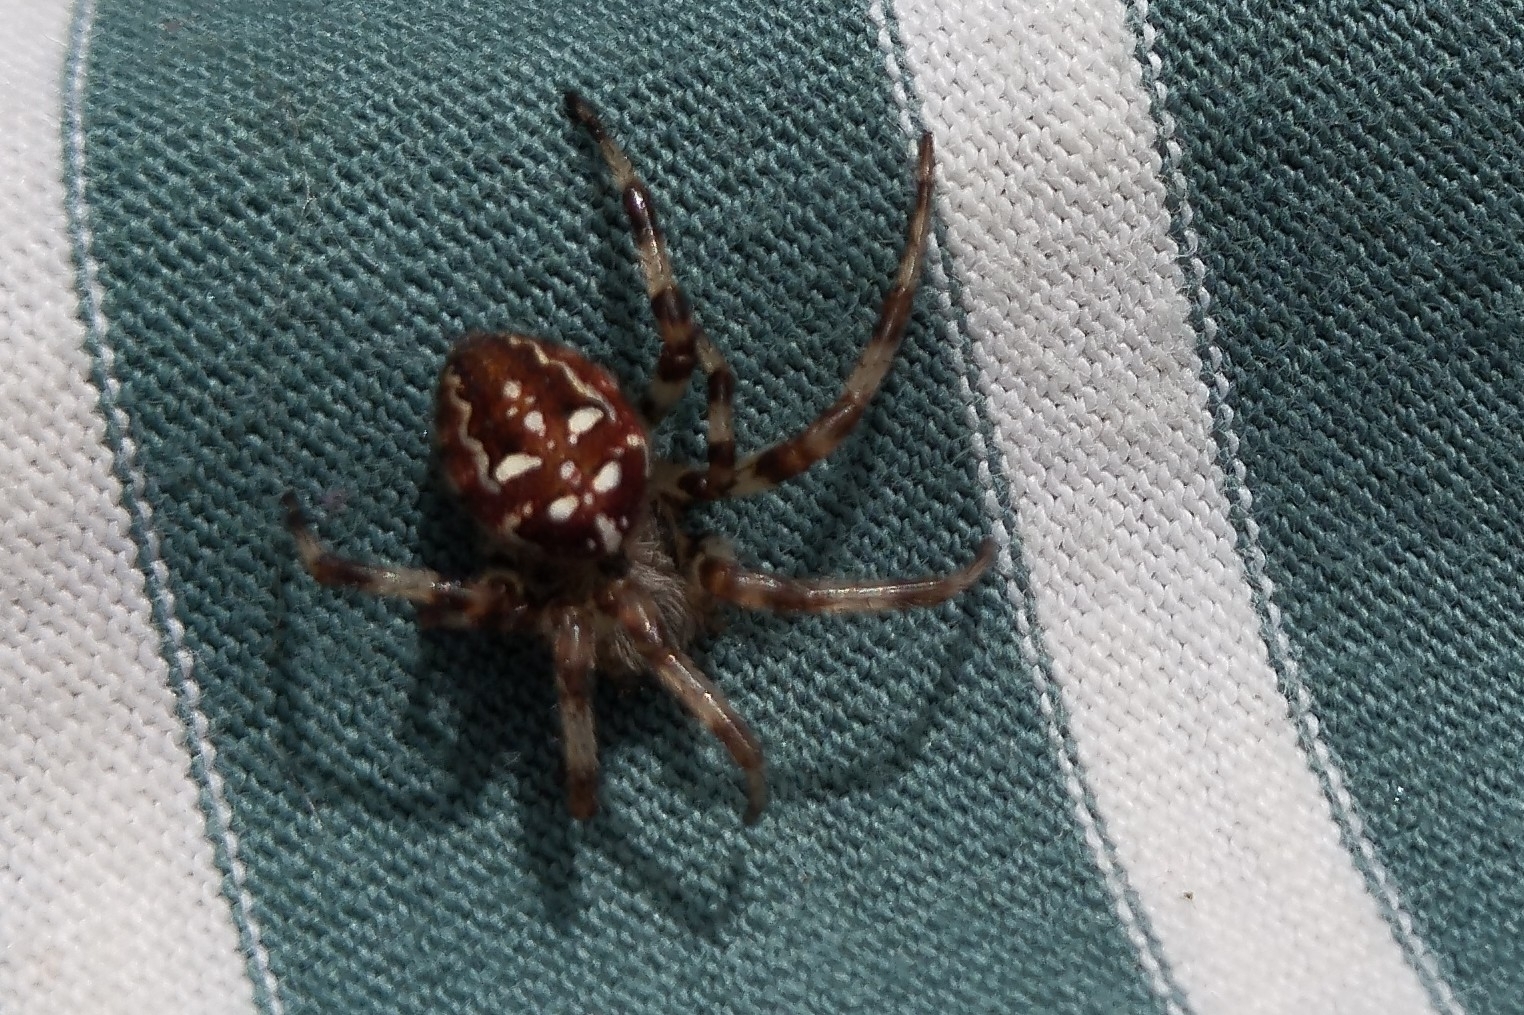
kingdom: Animalia
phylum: Arthropoda
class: Arachnida
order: Araneae
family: Araneidae
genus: Araneus
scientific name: Araneus quadratus
